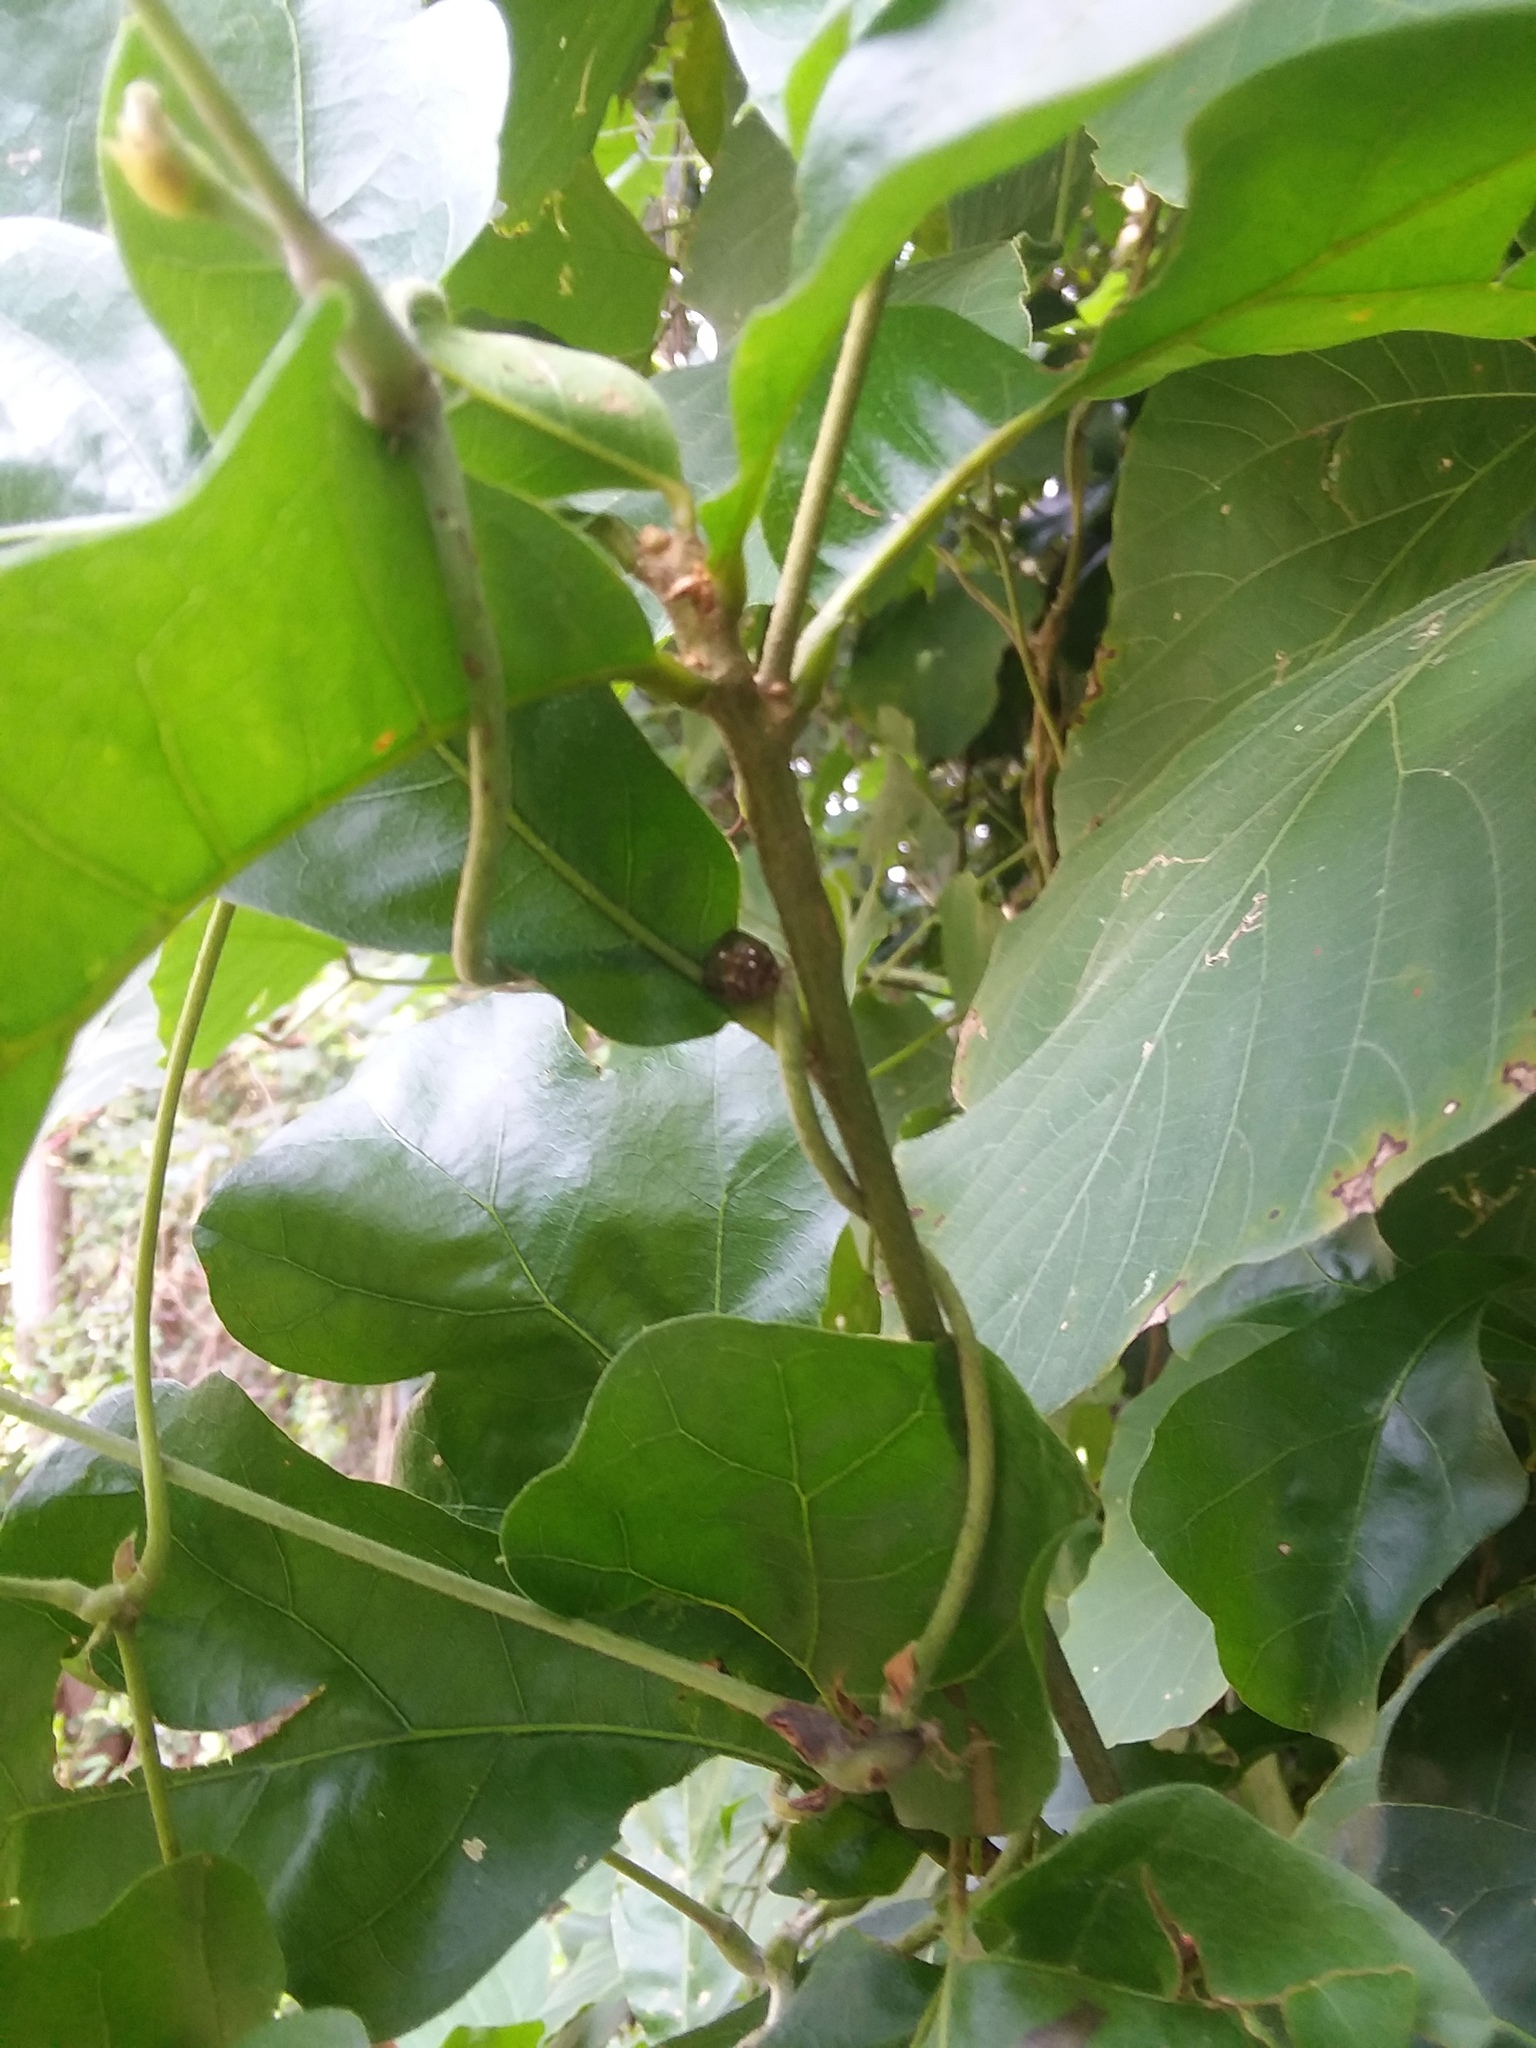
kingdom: Plantae
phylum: Tracheophyta
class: Magnoliopsida
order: Fabales
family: Fabaceae
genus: Pueraria
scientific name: Pueraria montana
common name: Kudzu
